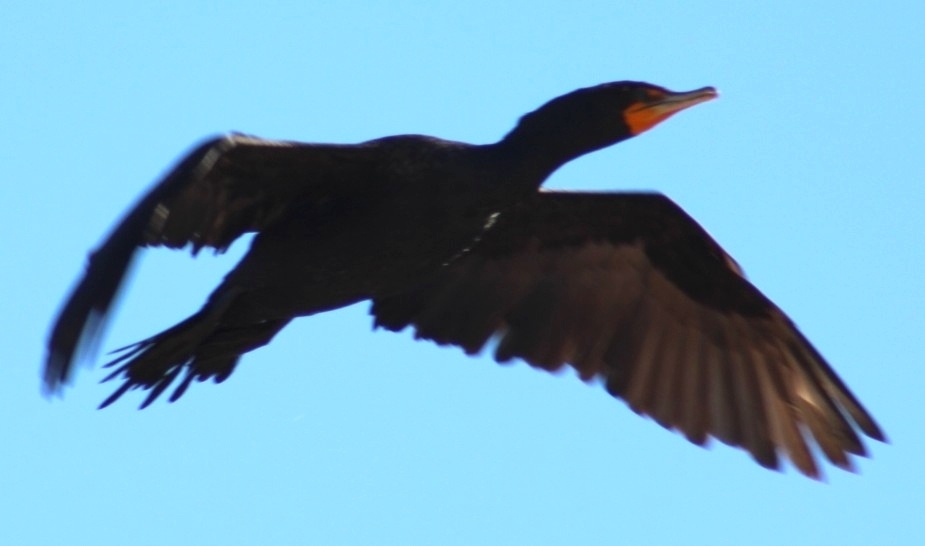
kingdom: Animalia
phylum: Chordata
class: Aves
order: Suliformes
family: Phalacrocoracidae
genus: Phalacrocorax
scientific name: Phalacrocorax auritus
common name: Double-crested cormorant
